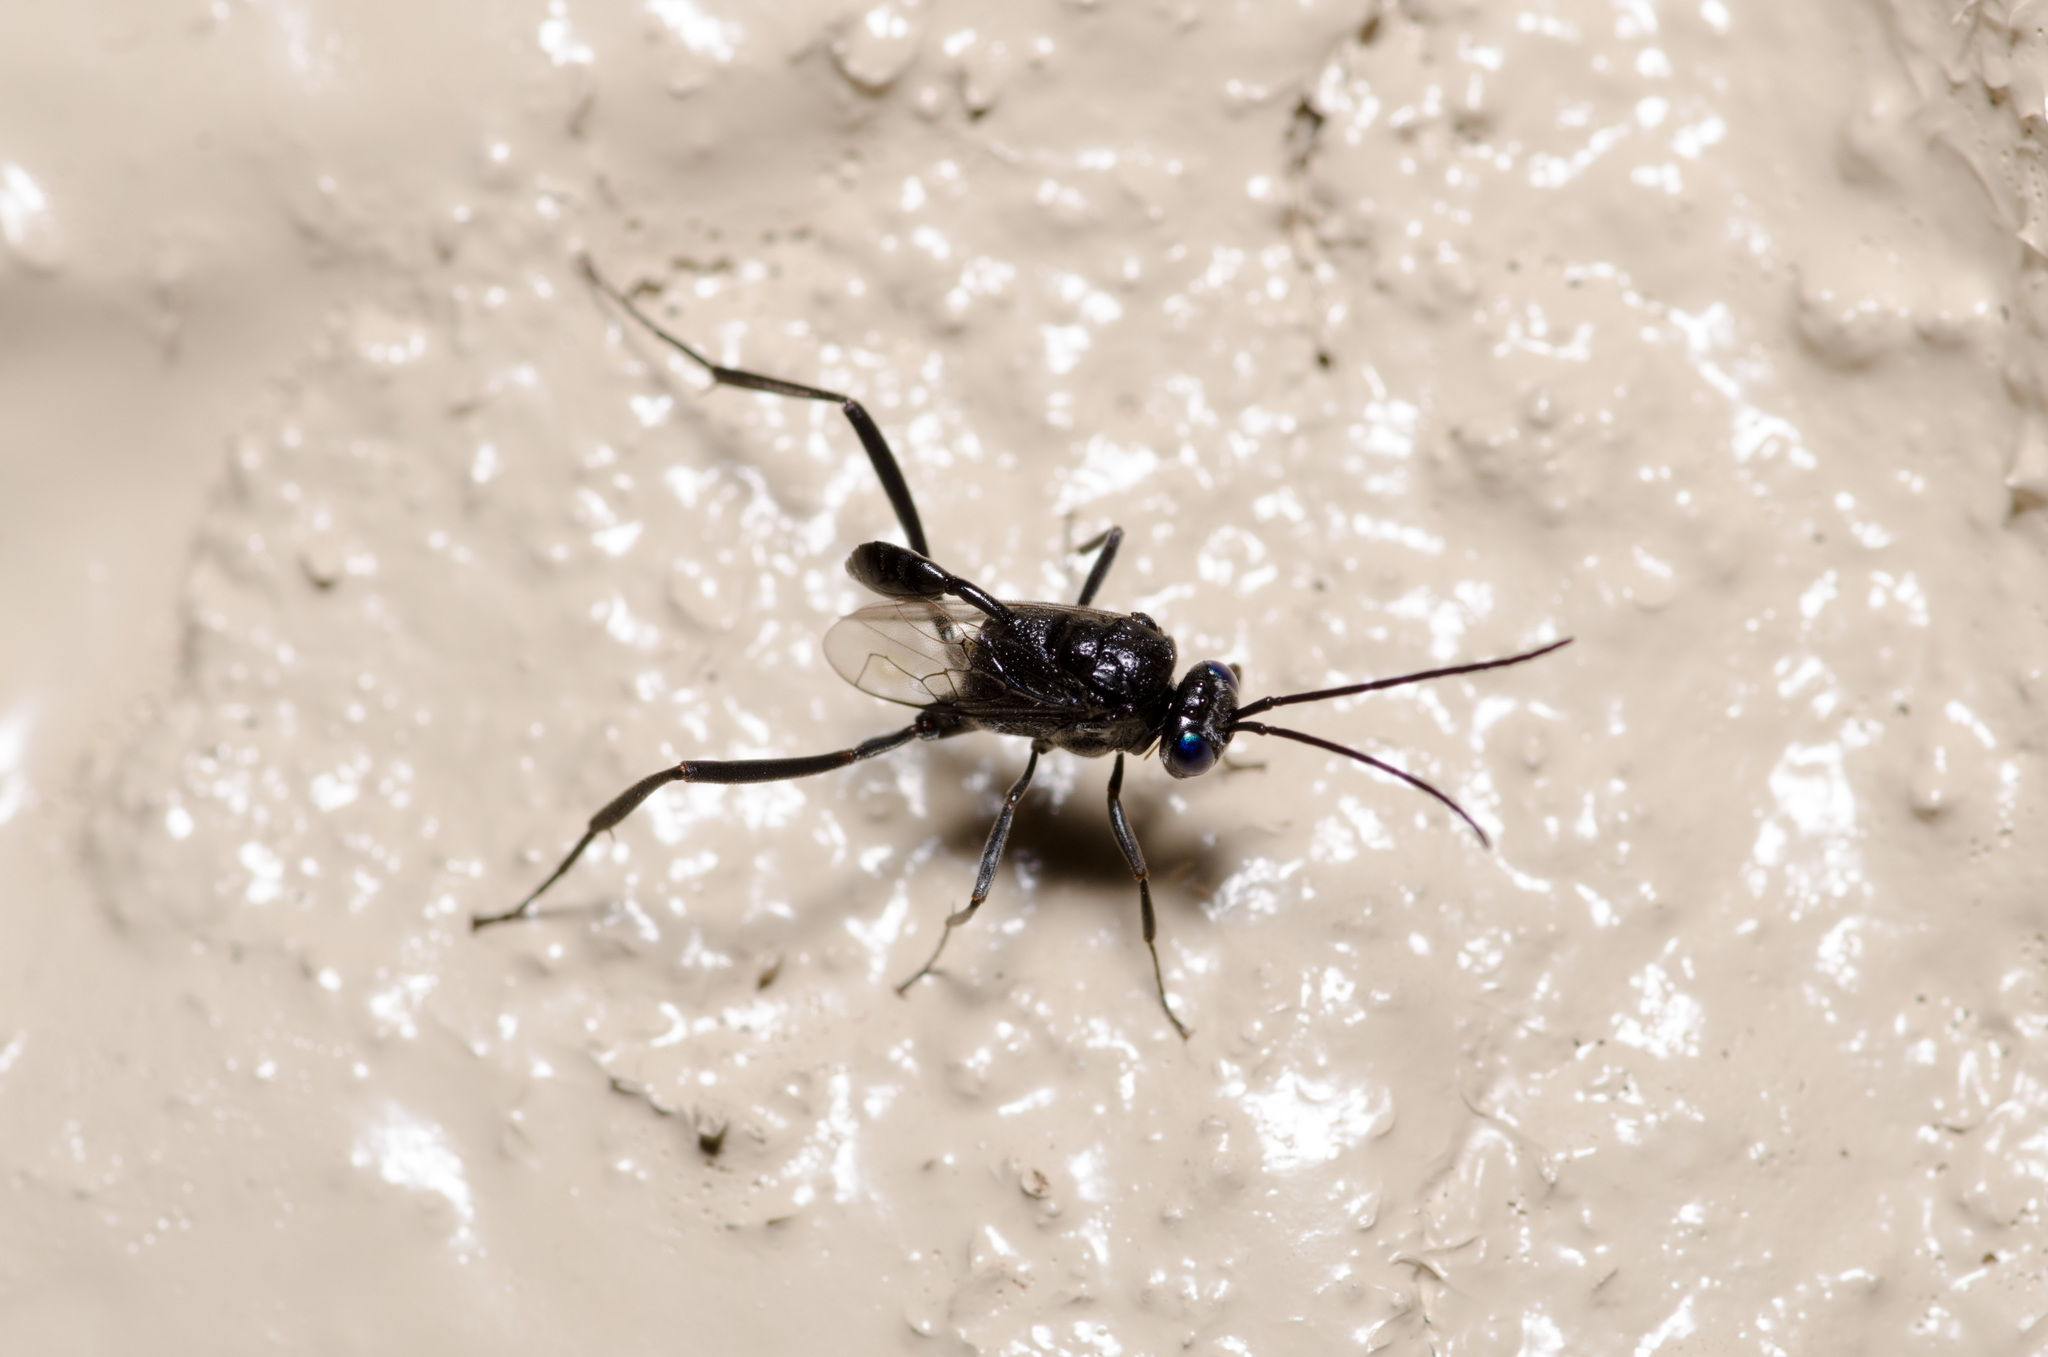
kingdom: Animalia
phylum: Arthropoda
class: Insecta
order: Hymenoptera
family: Evaniidae
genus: Evania
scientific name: Evania appendigaster
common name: Ensign wasp
